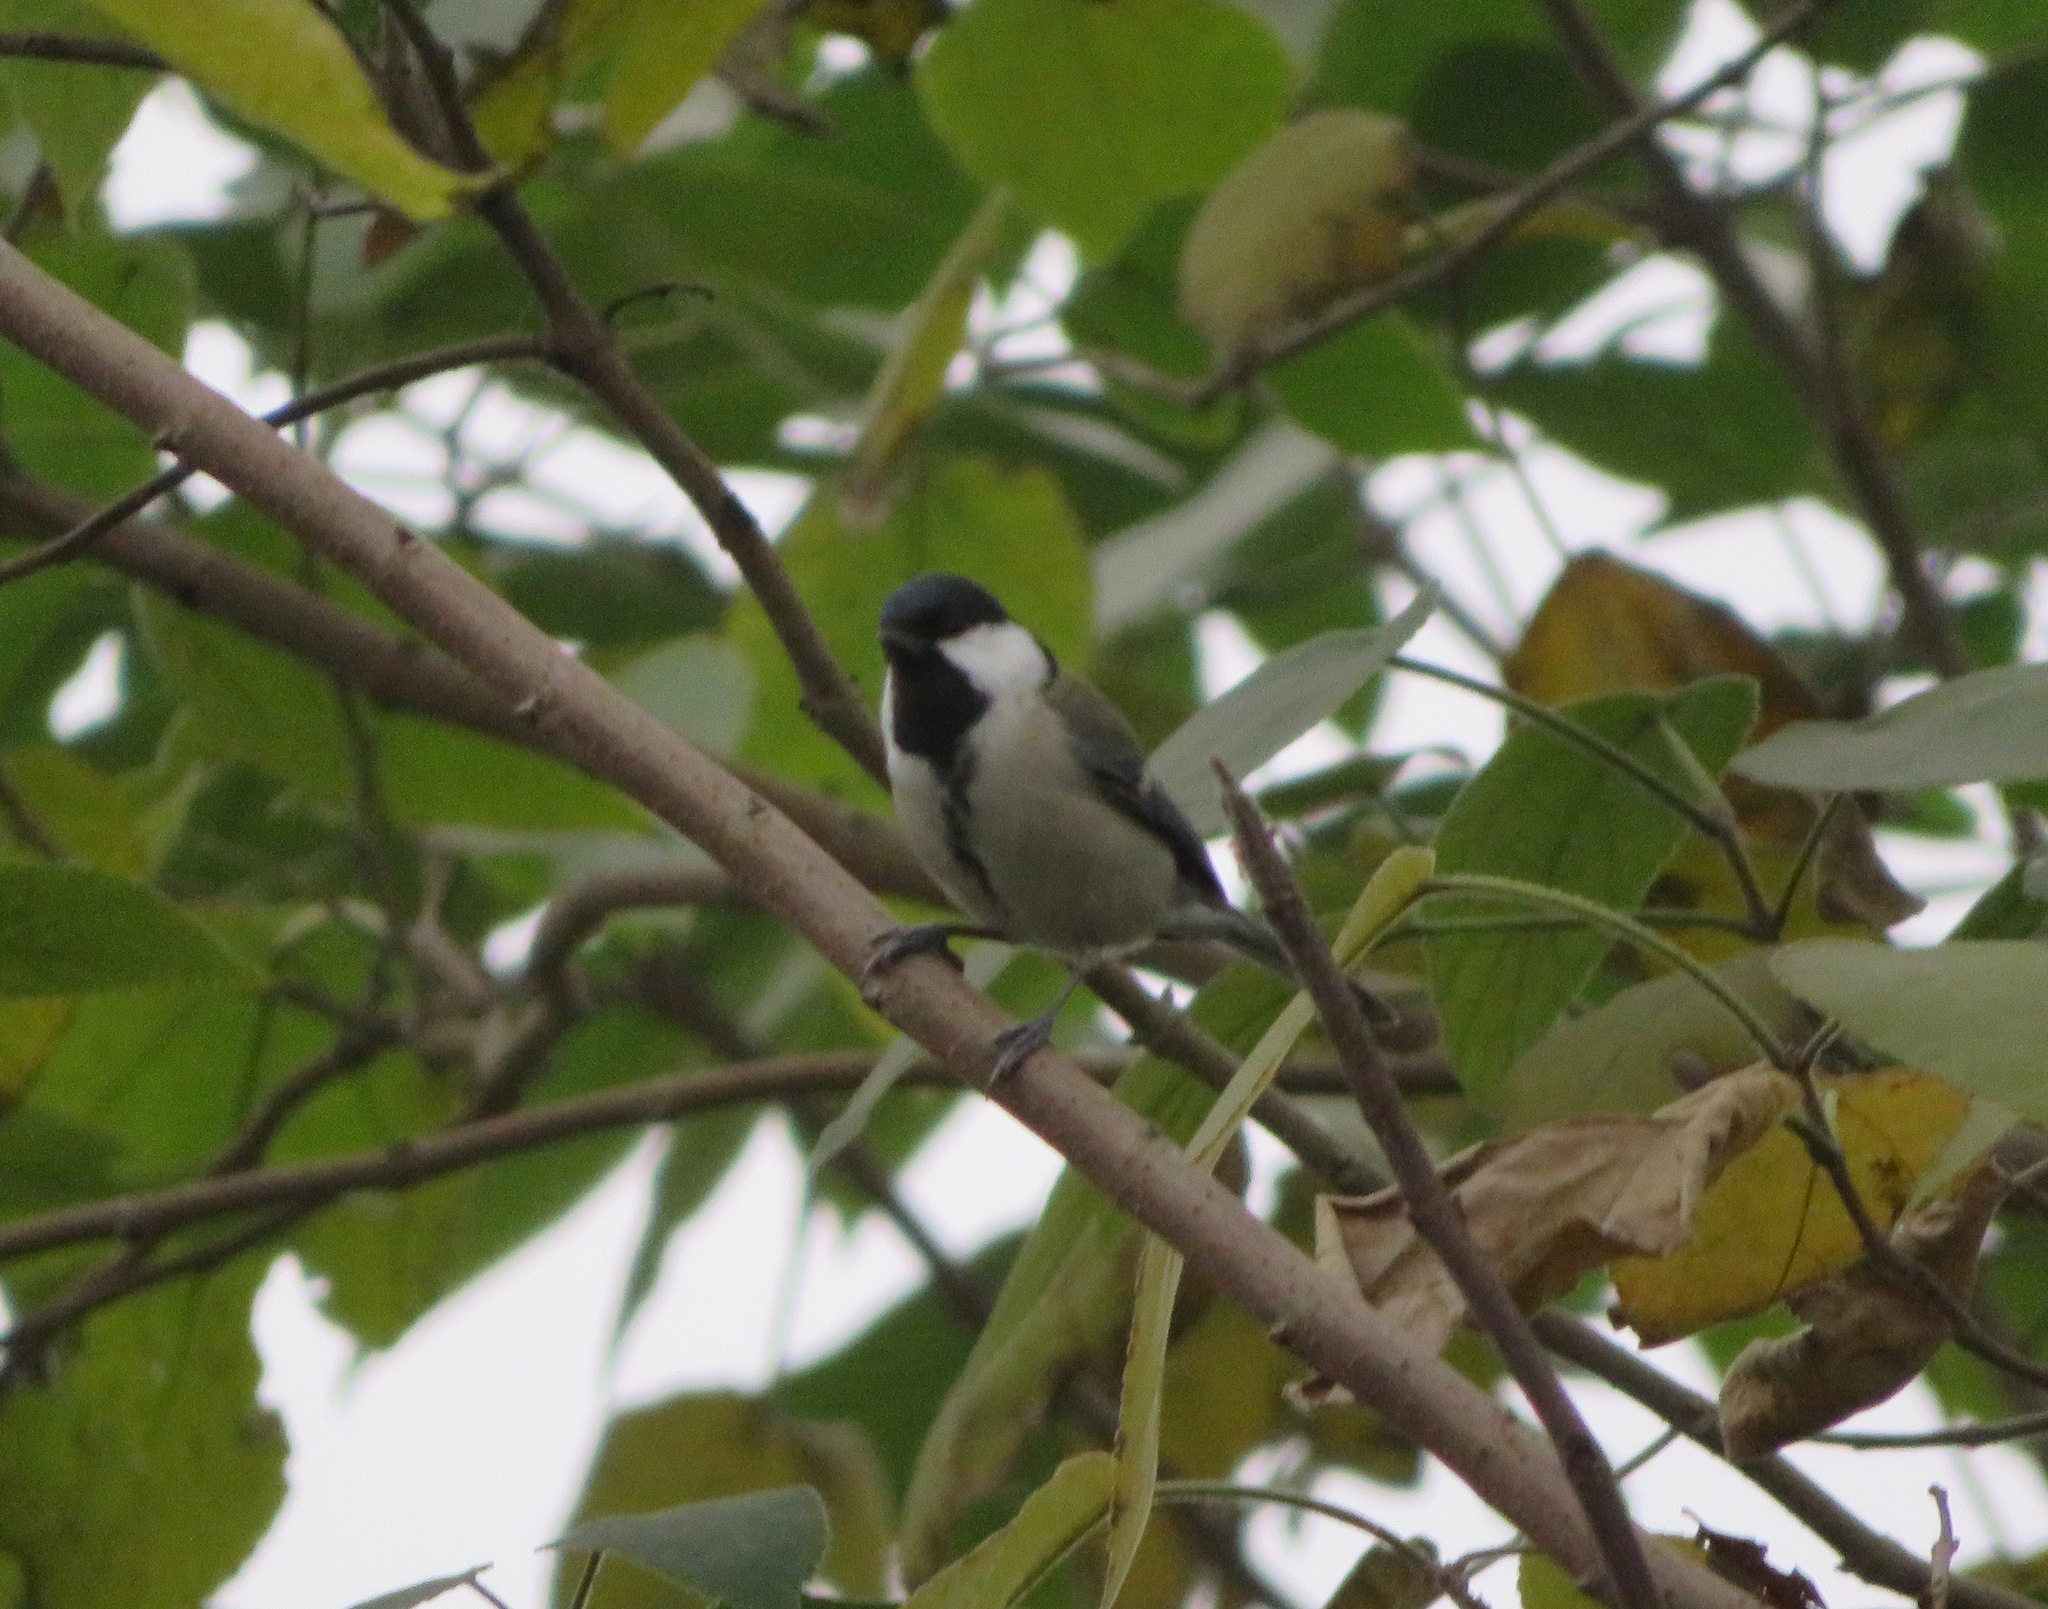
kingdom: Animalia
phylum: Chordata
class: Aves
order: Passeriformes
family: Paridae
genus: Parus
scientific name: Parus minor
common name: Japanese tit
